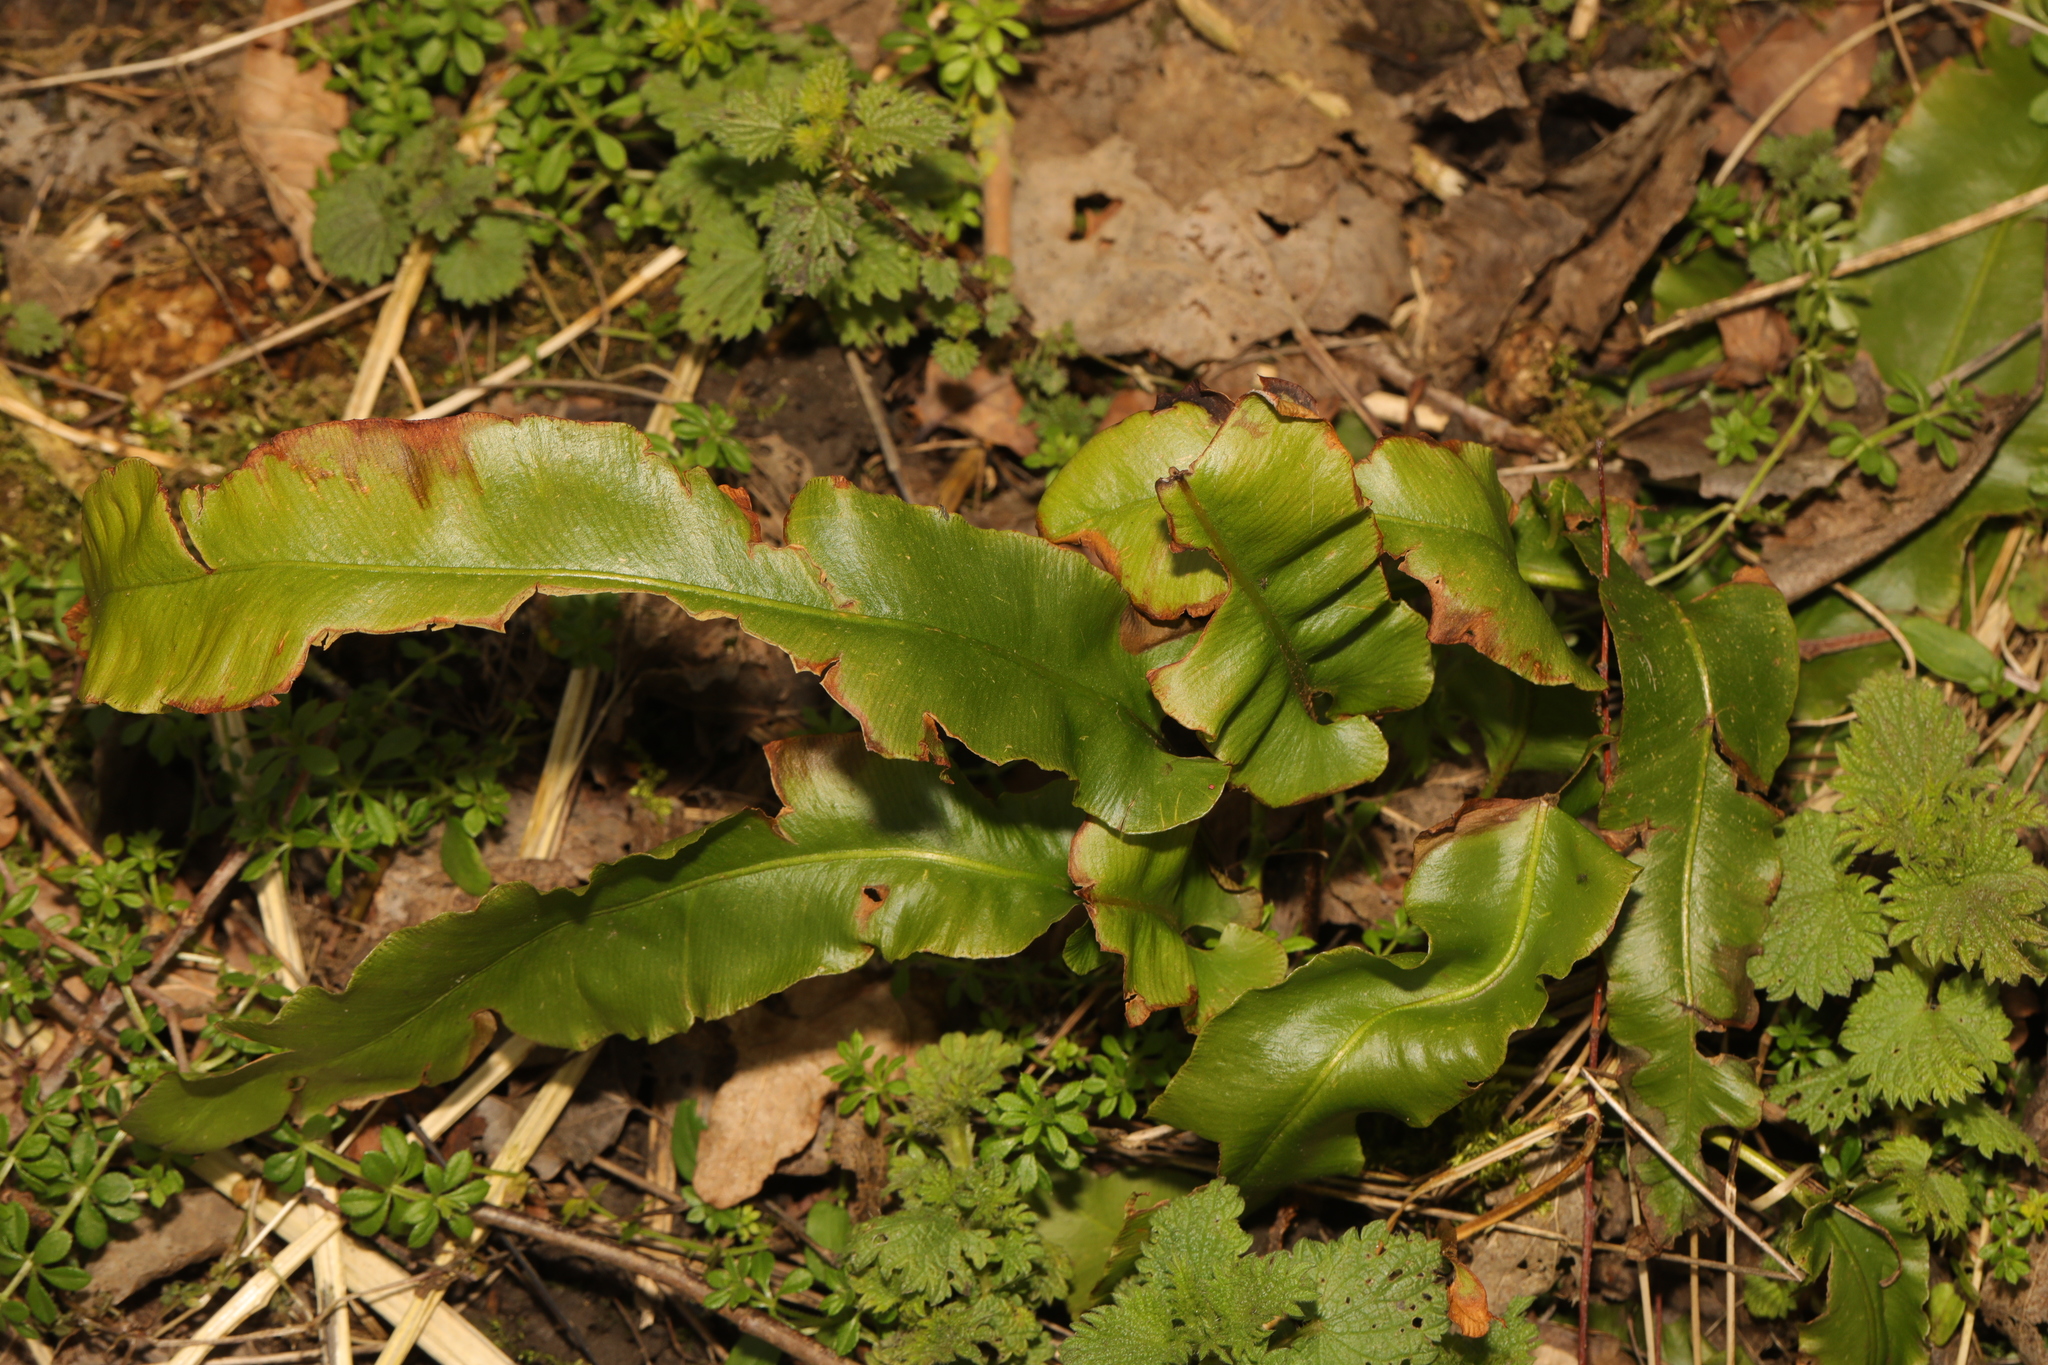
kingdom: Plantae
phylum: Tracheophyta
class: Polypodiopsida
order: Polypodiales
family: Aspleniaceae
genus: Asplenium
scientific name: Asplenium scolopendrium
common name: Hart's-tongue fern
